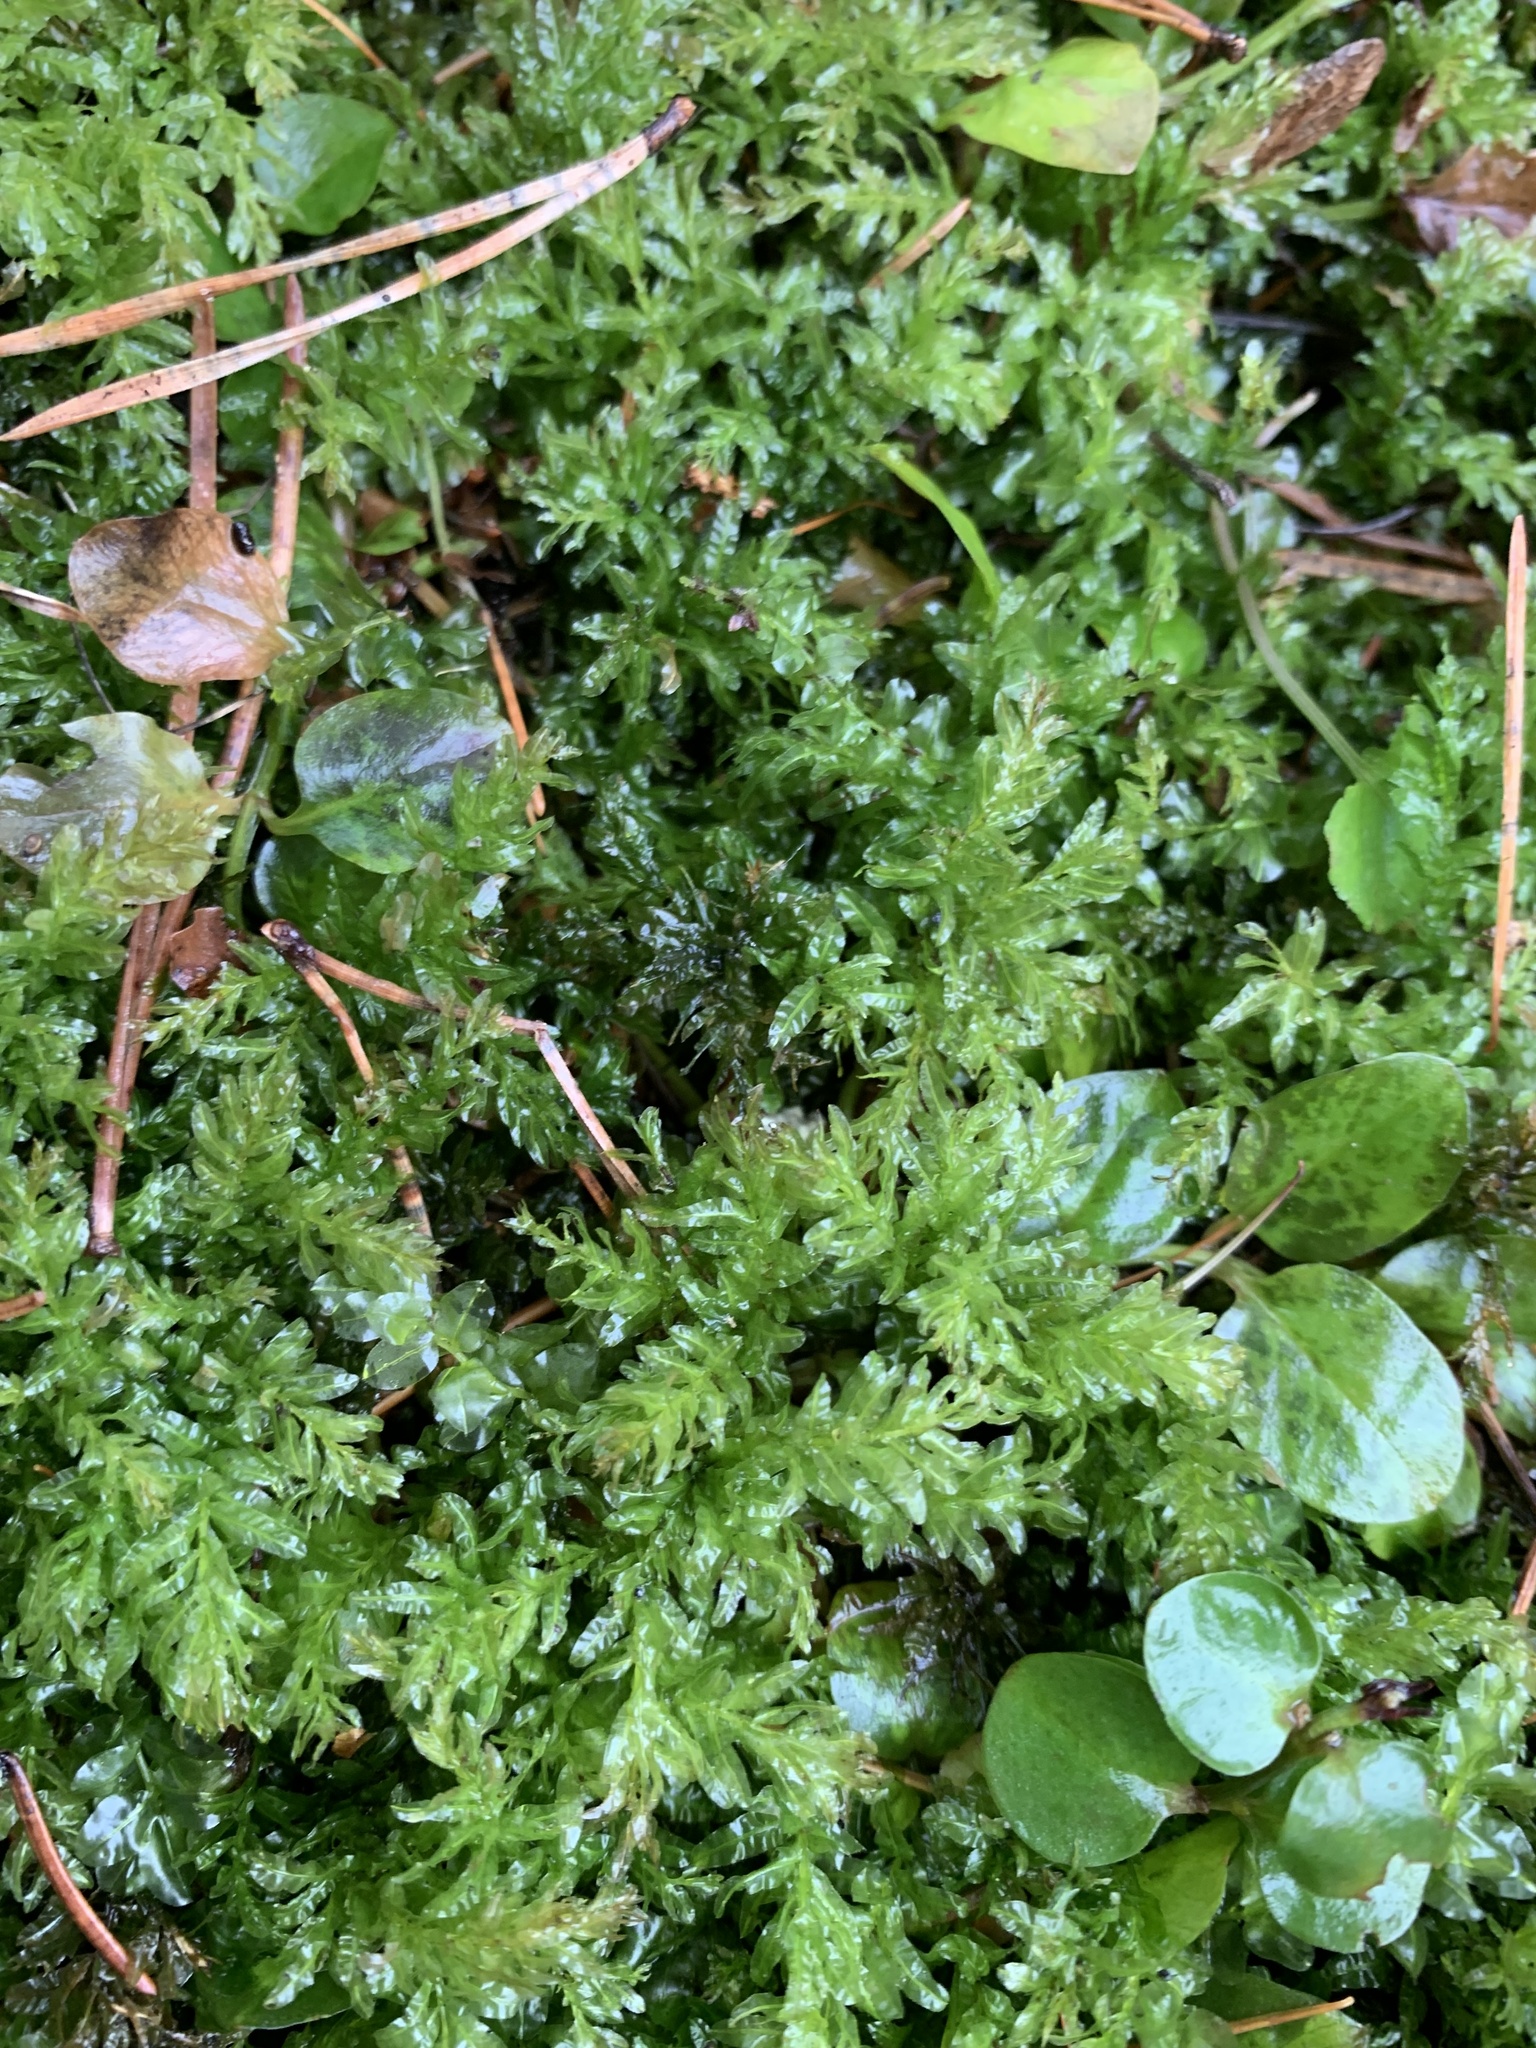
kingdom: Plantae
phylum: Bryophyta
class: Bryopsida
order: Bryales
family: Mniaceae
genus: Plagiomnium
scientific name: Plagiomnium undulatum
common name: Hart's-tongue thyme-moss
